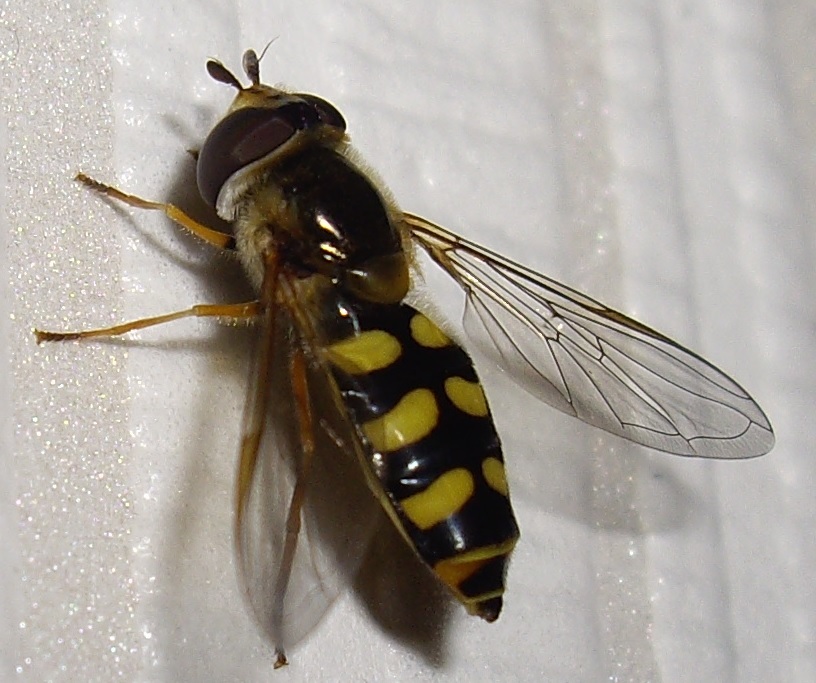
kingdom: Animalia
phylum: Arthropoda
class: Insecta
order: Diptera
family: Syrphidae
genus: Eupeodes
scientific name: Eupeodes luniger
